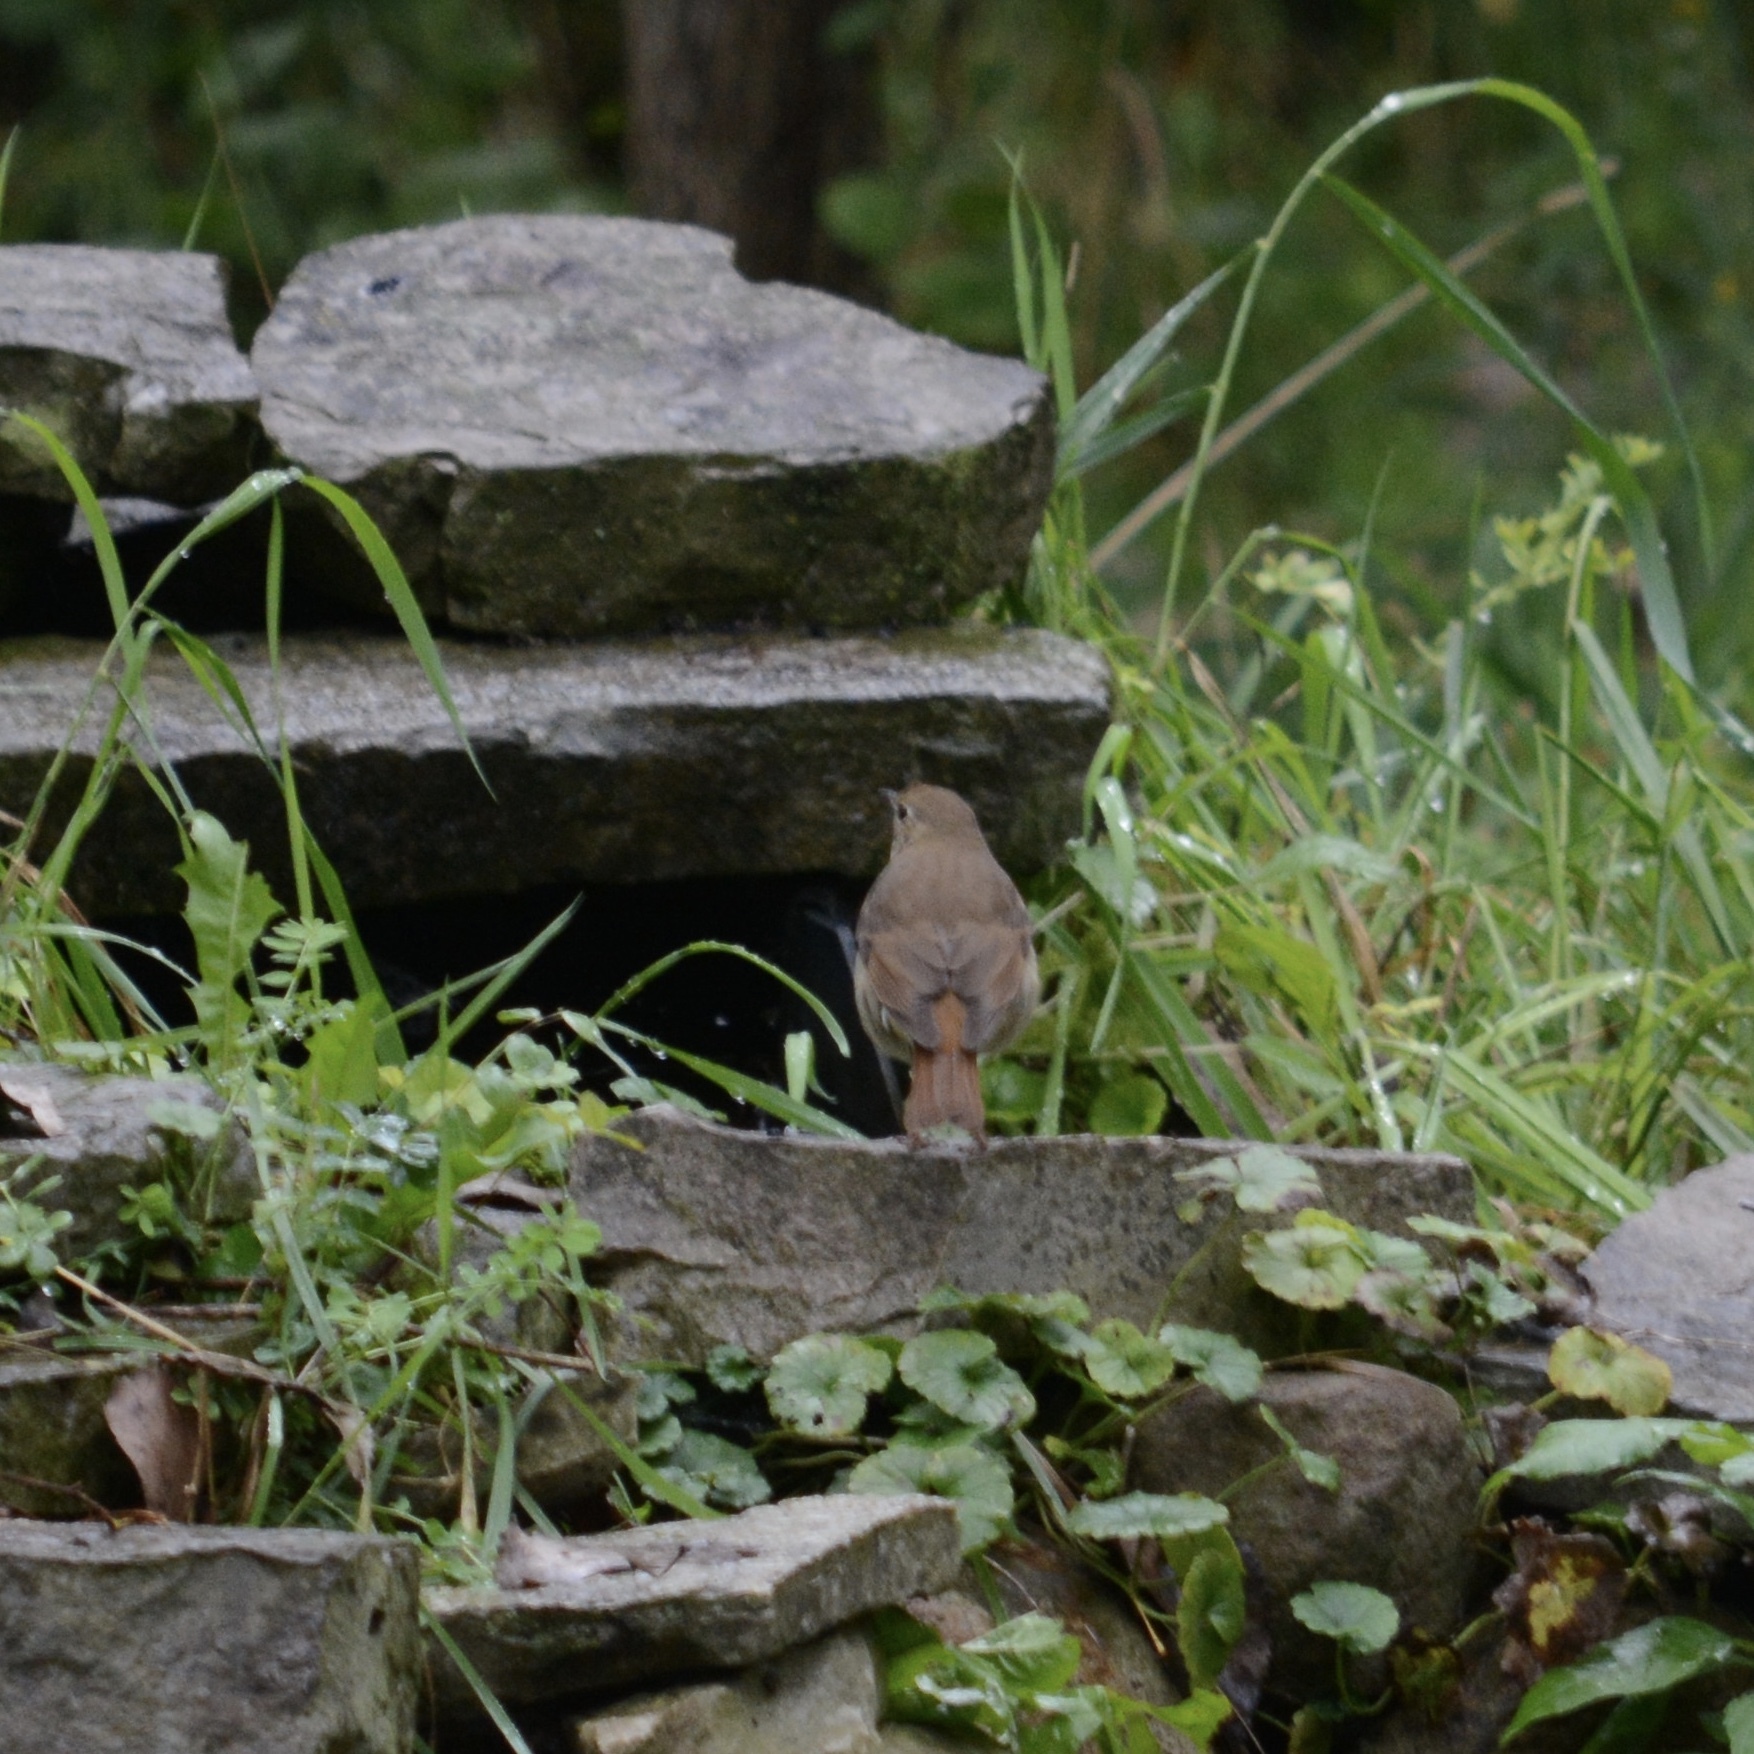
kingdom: Animalia
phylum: Chordata
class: Aves
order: Passeriformes
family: Turdidae
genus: Catharus
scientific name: Catharus guttatus
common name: Hermit thrush
